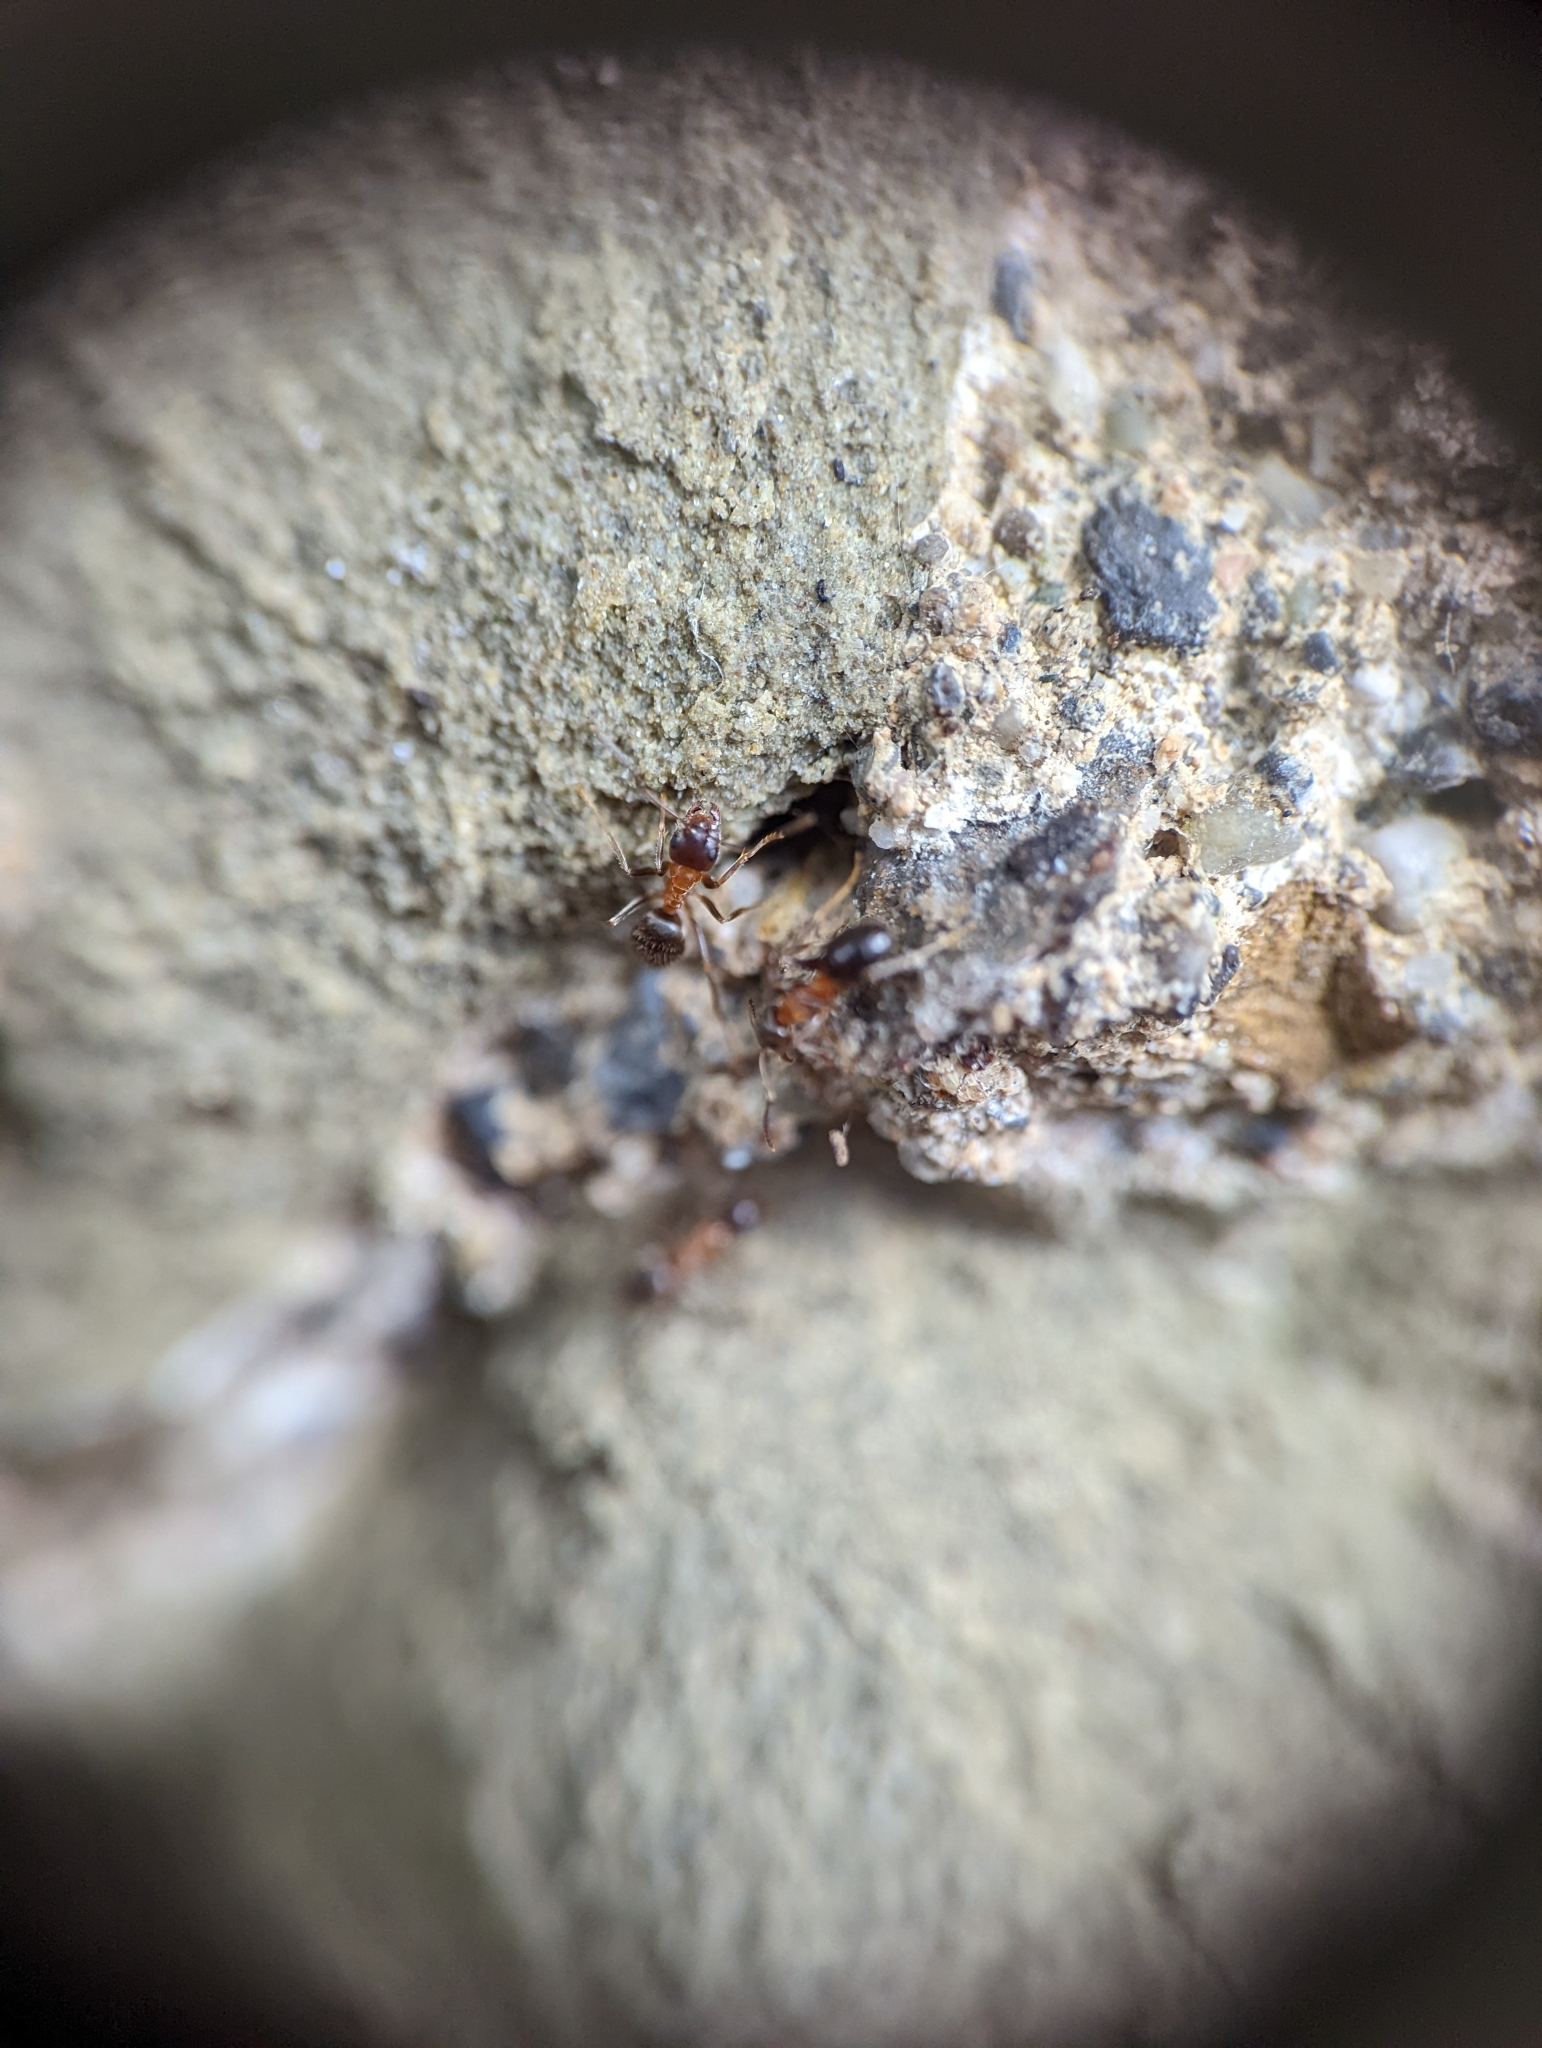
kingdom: Animalia
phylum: Arthropoda
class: Insecta
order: Hymenoptera
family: Formicidae
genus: Lasius
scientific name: Lasius emarginatus
